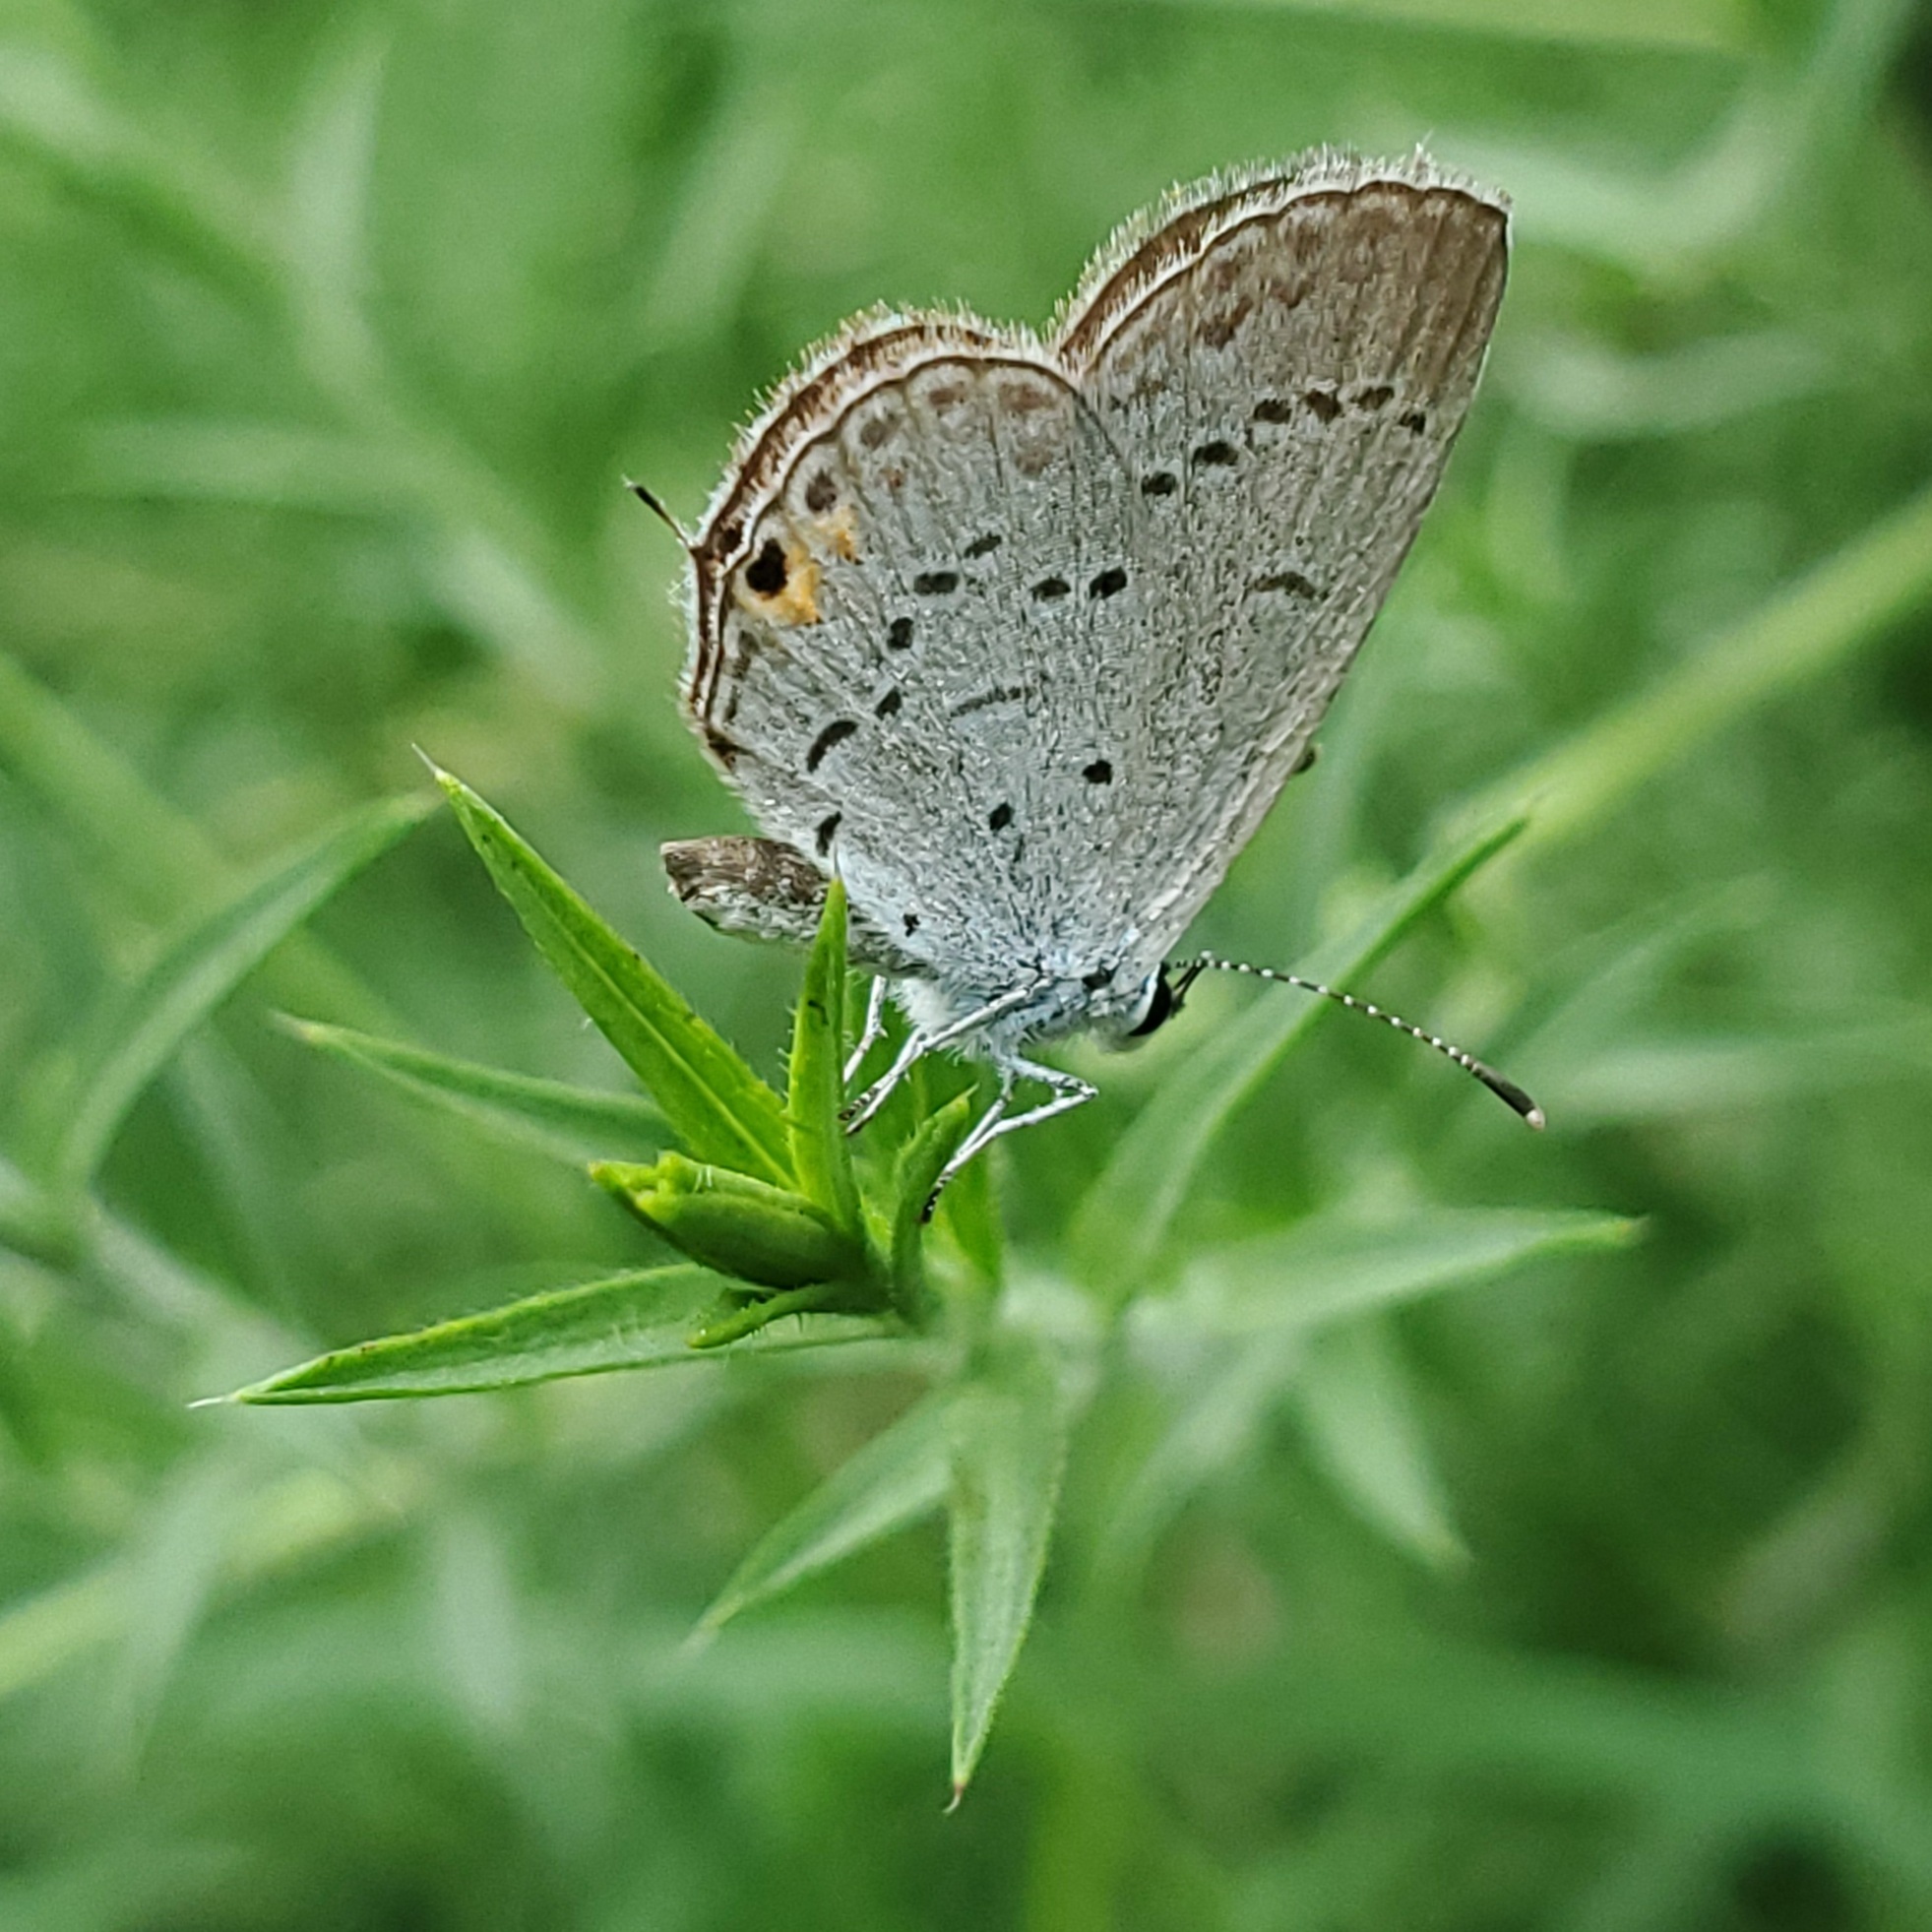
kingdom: Animalia
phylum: Arthropoda
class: Insecta
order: Lepidoptera
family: Lycaenidae
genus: Elkalyce
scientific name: Elkalyce comyntas
